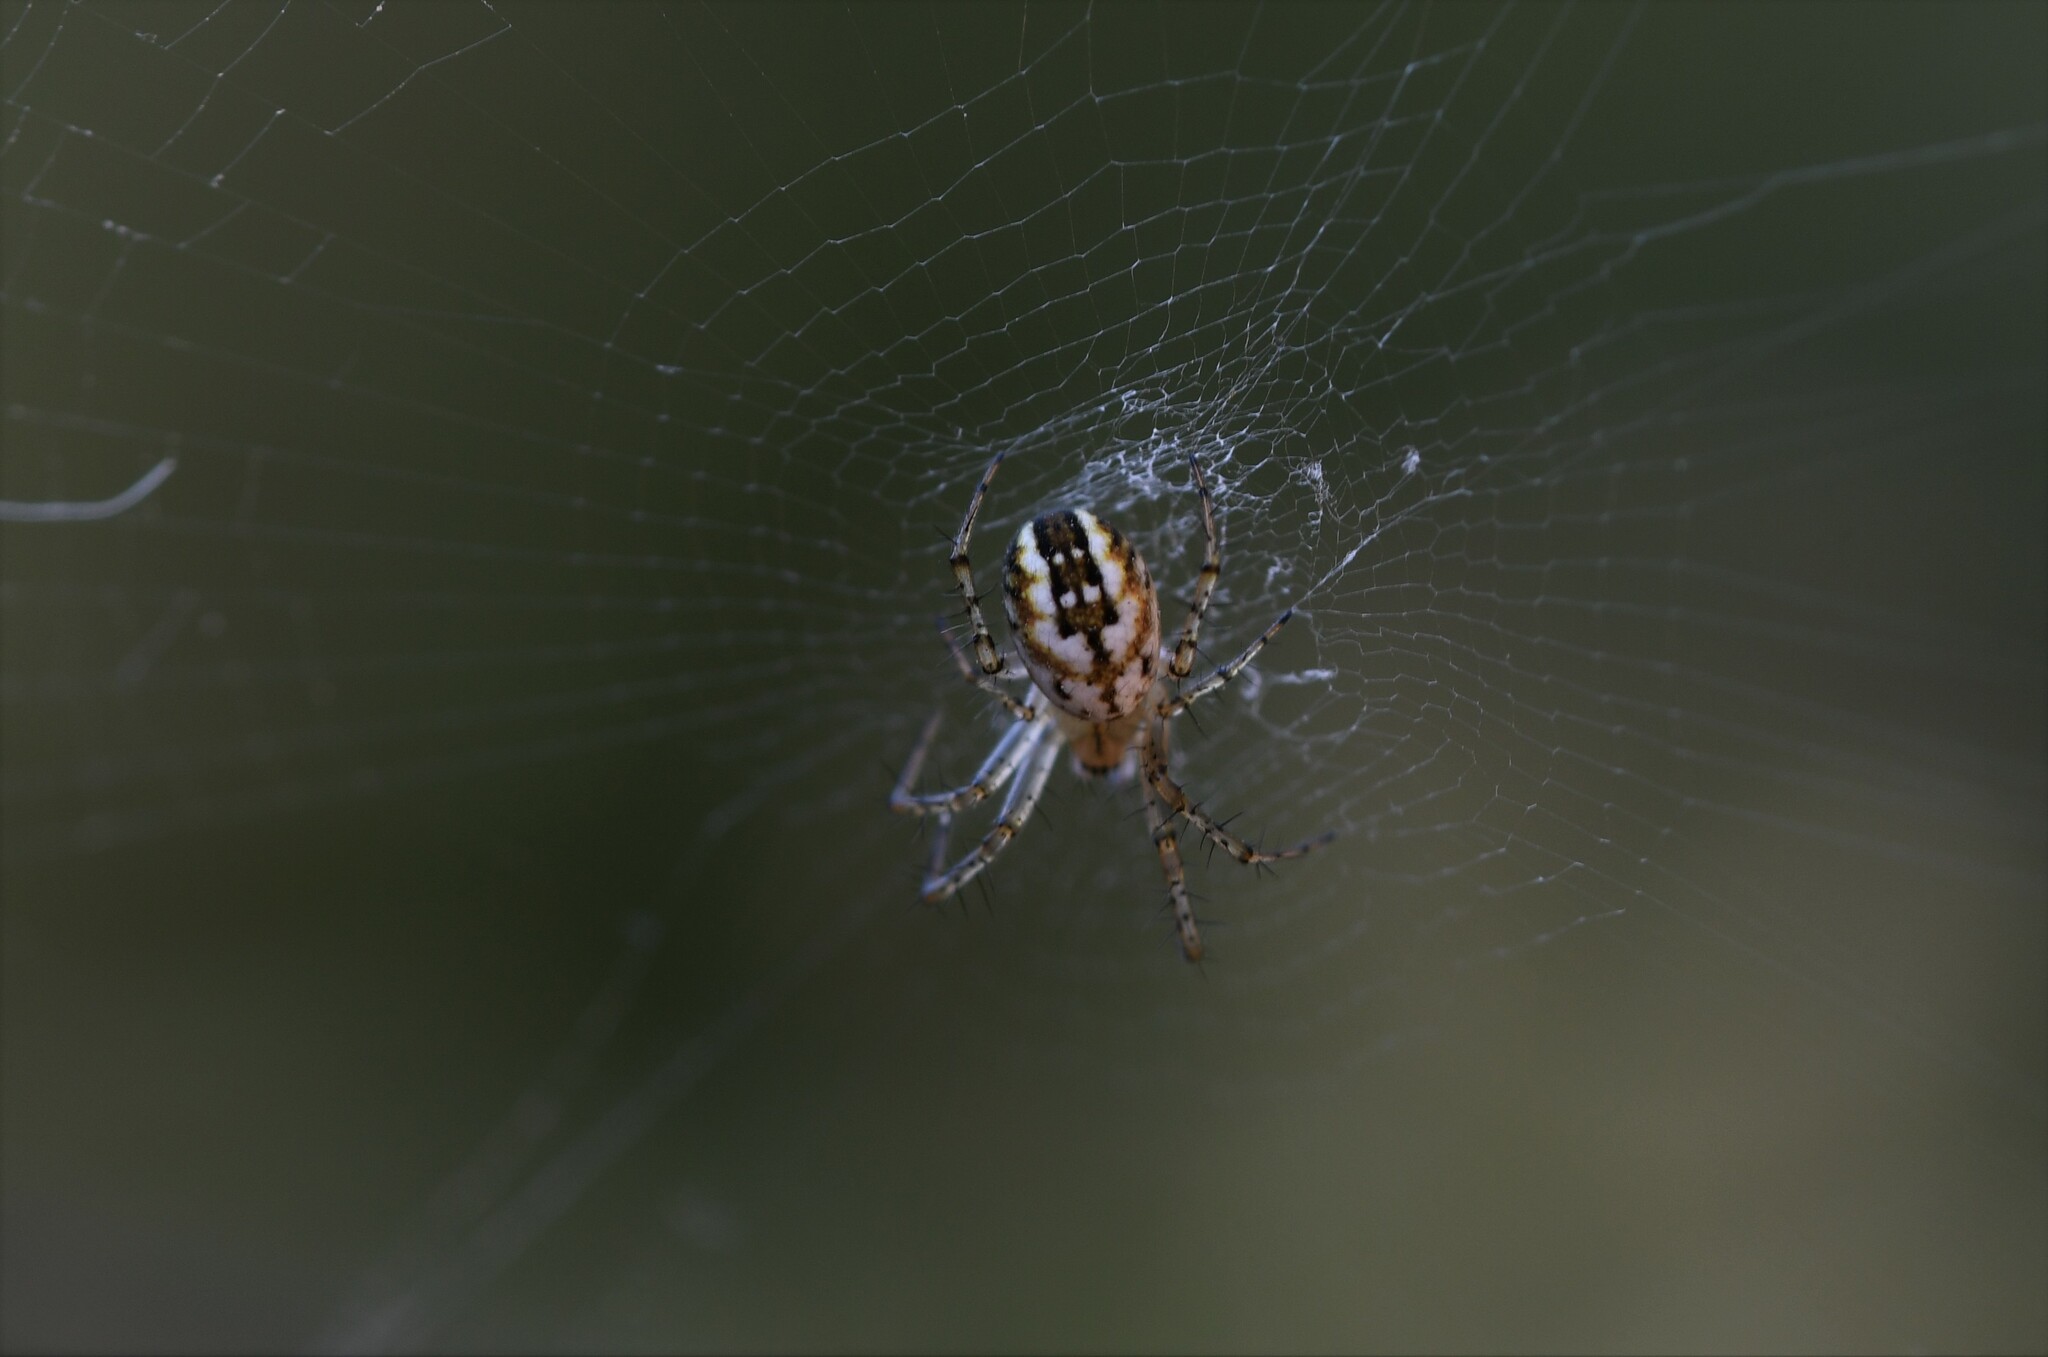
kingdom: Animalia
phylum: Arthropoda
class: Arachnida
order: Araneae
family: Araneidae
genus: Mangora
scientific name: Mangora acalypha
